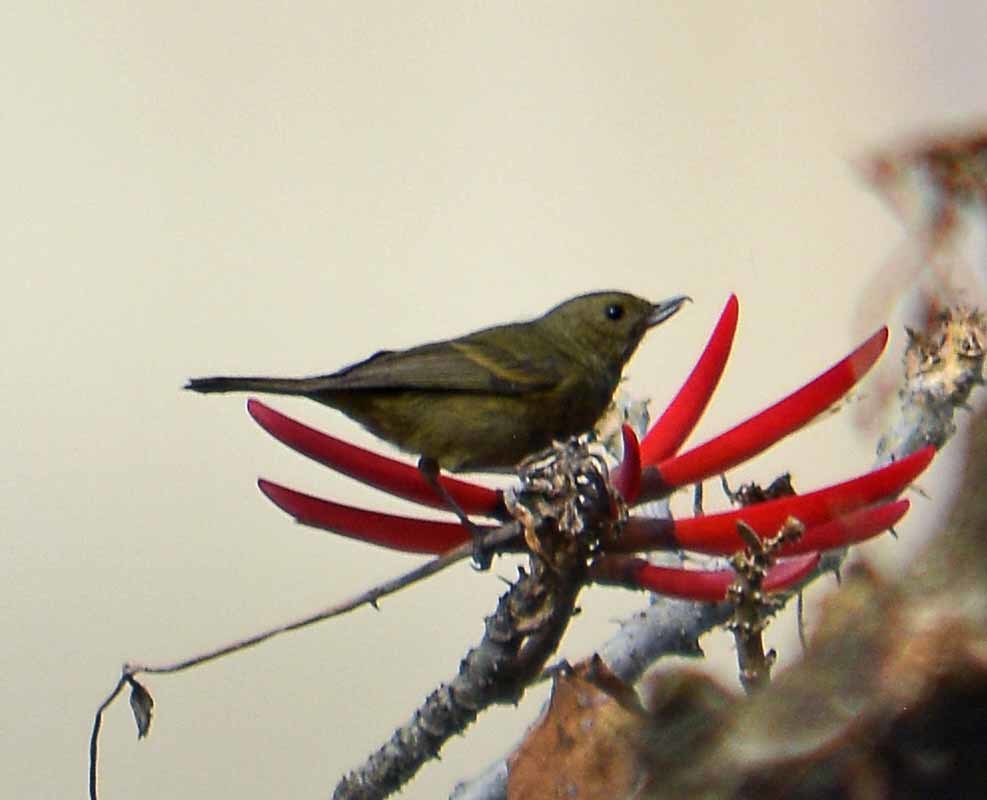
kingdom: Animalia
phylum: Chordata
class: Aves
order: Passeriformes
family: Thraupidae
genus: Diglossa
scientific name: Diglossa baritula
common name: Cinnamon-bellied flowerpiercer
